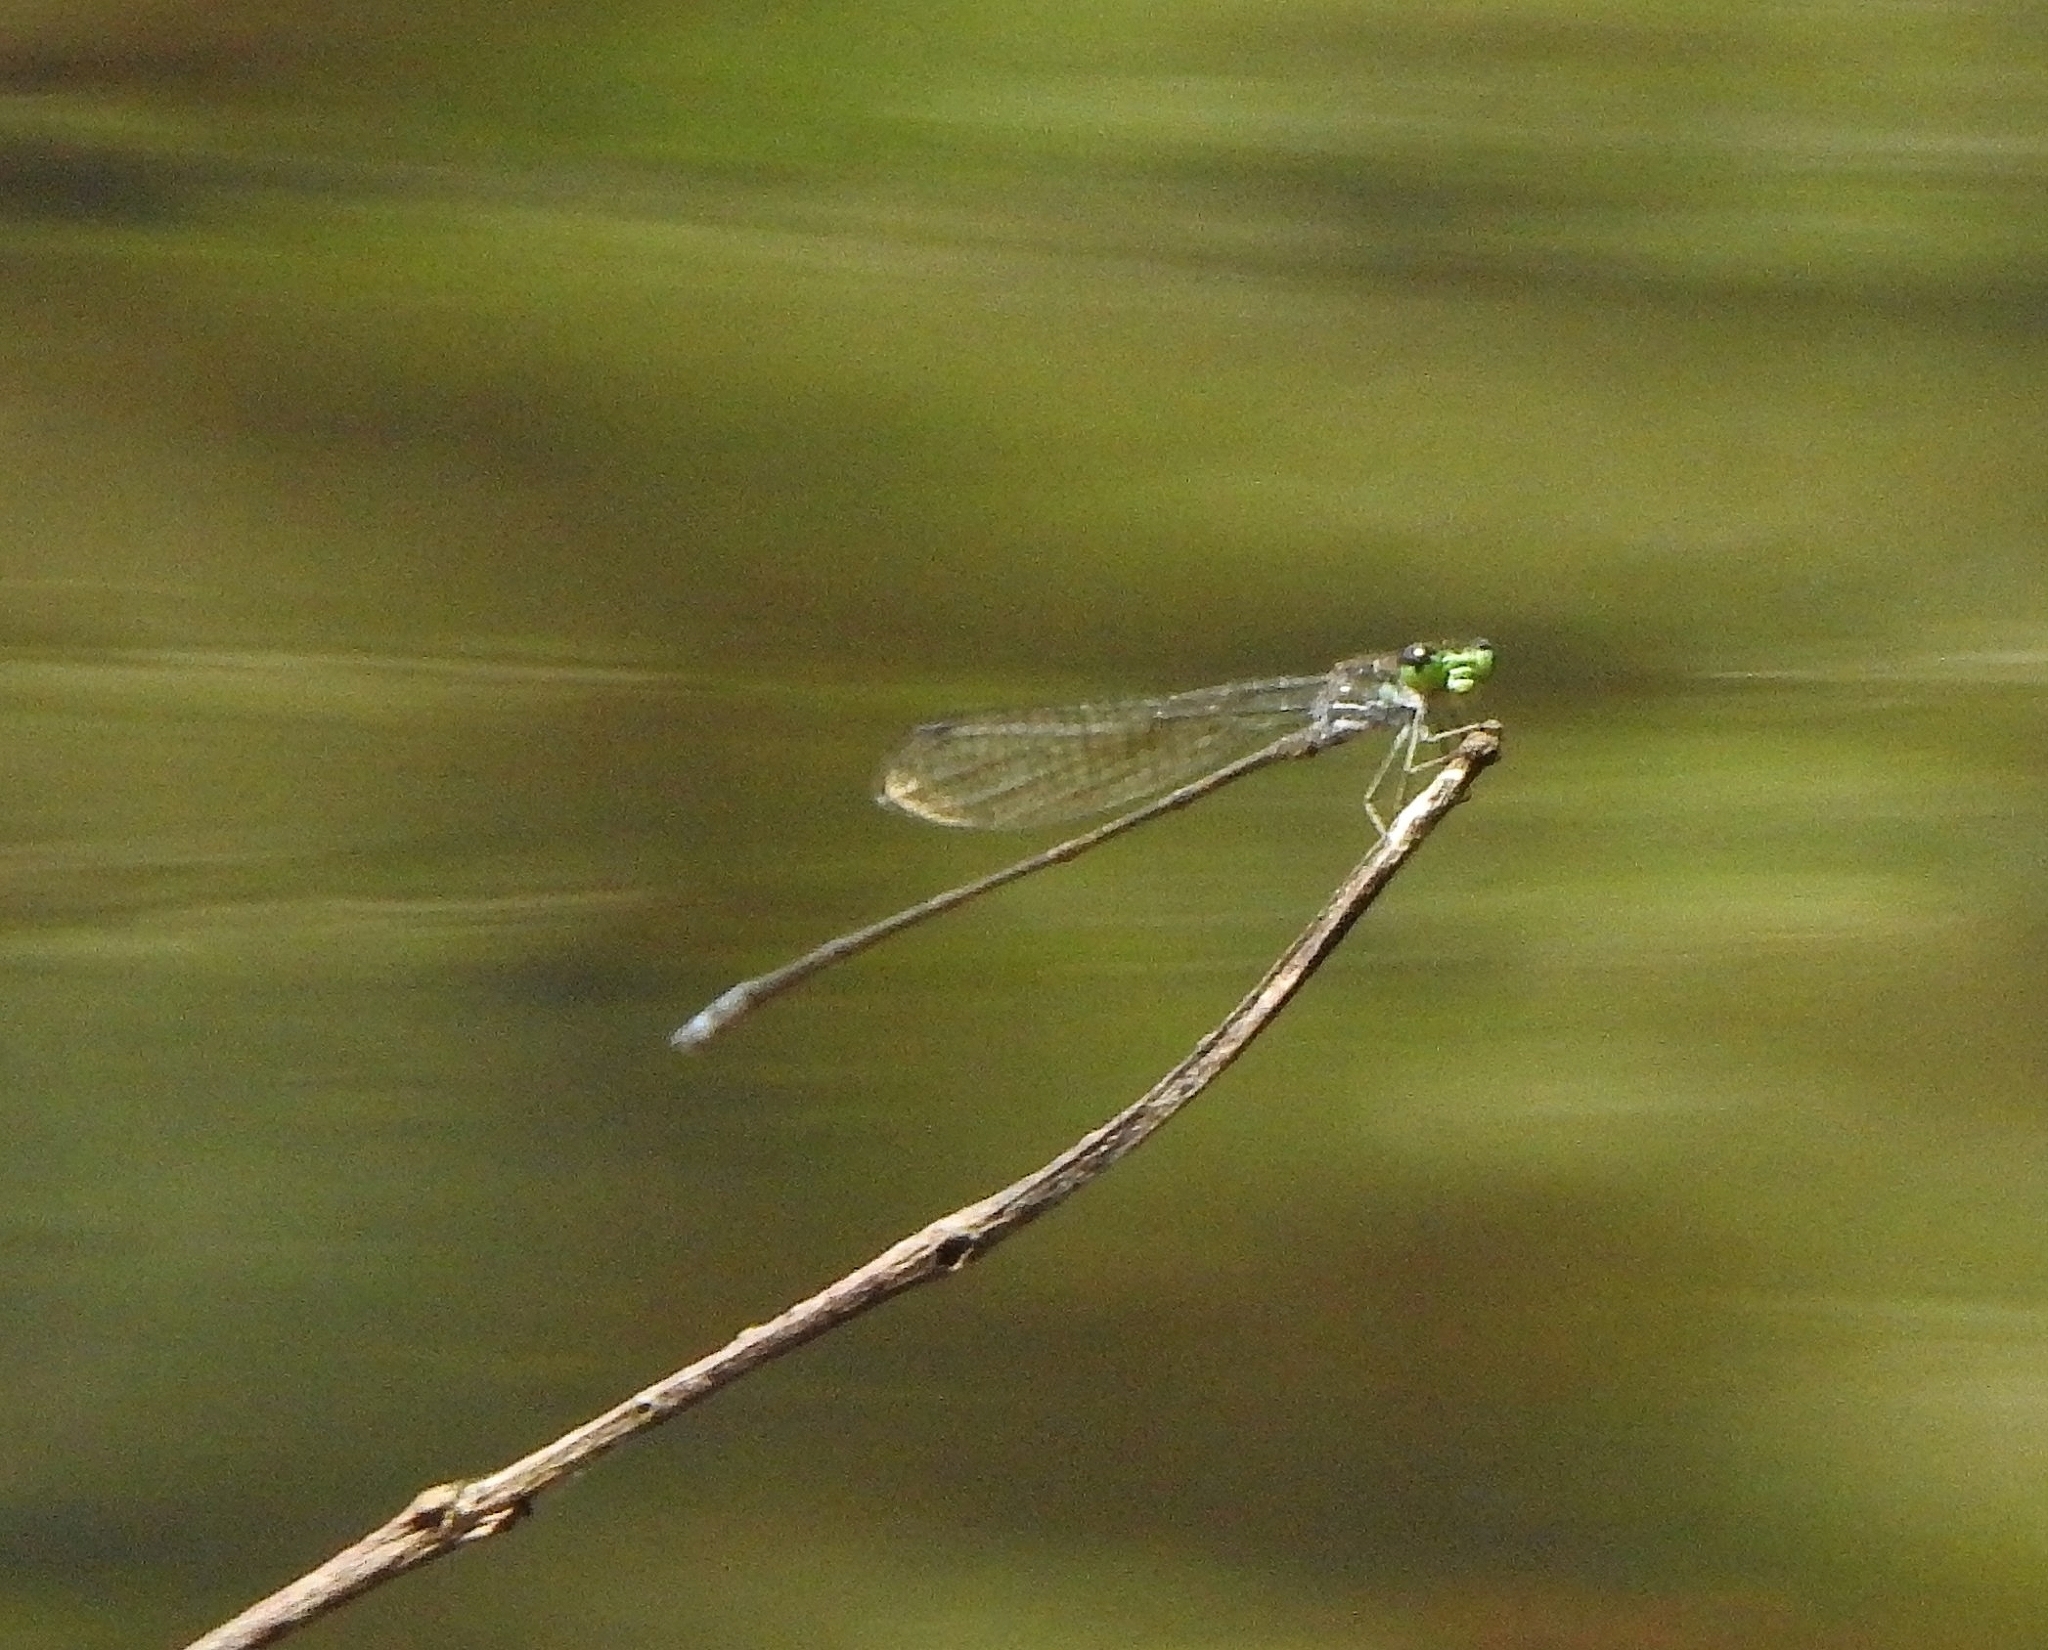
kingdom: Animalia
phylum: Arthropoda
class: Insecta
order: Odonata
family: Coenagrionidae
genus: Pseudagrion
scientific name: Pseudagrion indicum
